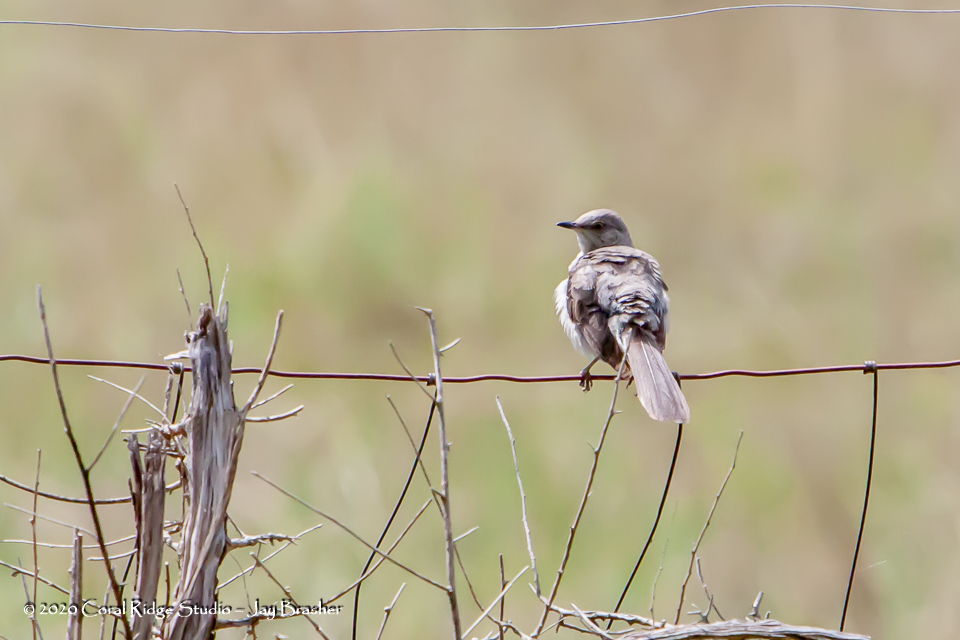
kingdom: Animalia
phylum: Chordata
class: Aves
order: Passeriformes
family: Mimidae
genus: Mimus
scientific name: Mimus polyglottos
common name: Northern mockingbird
